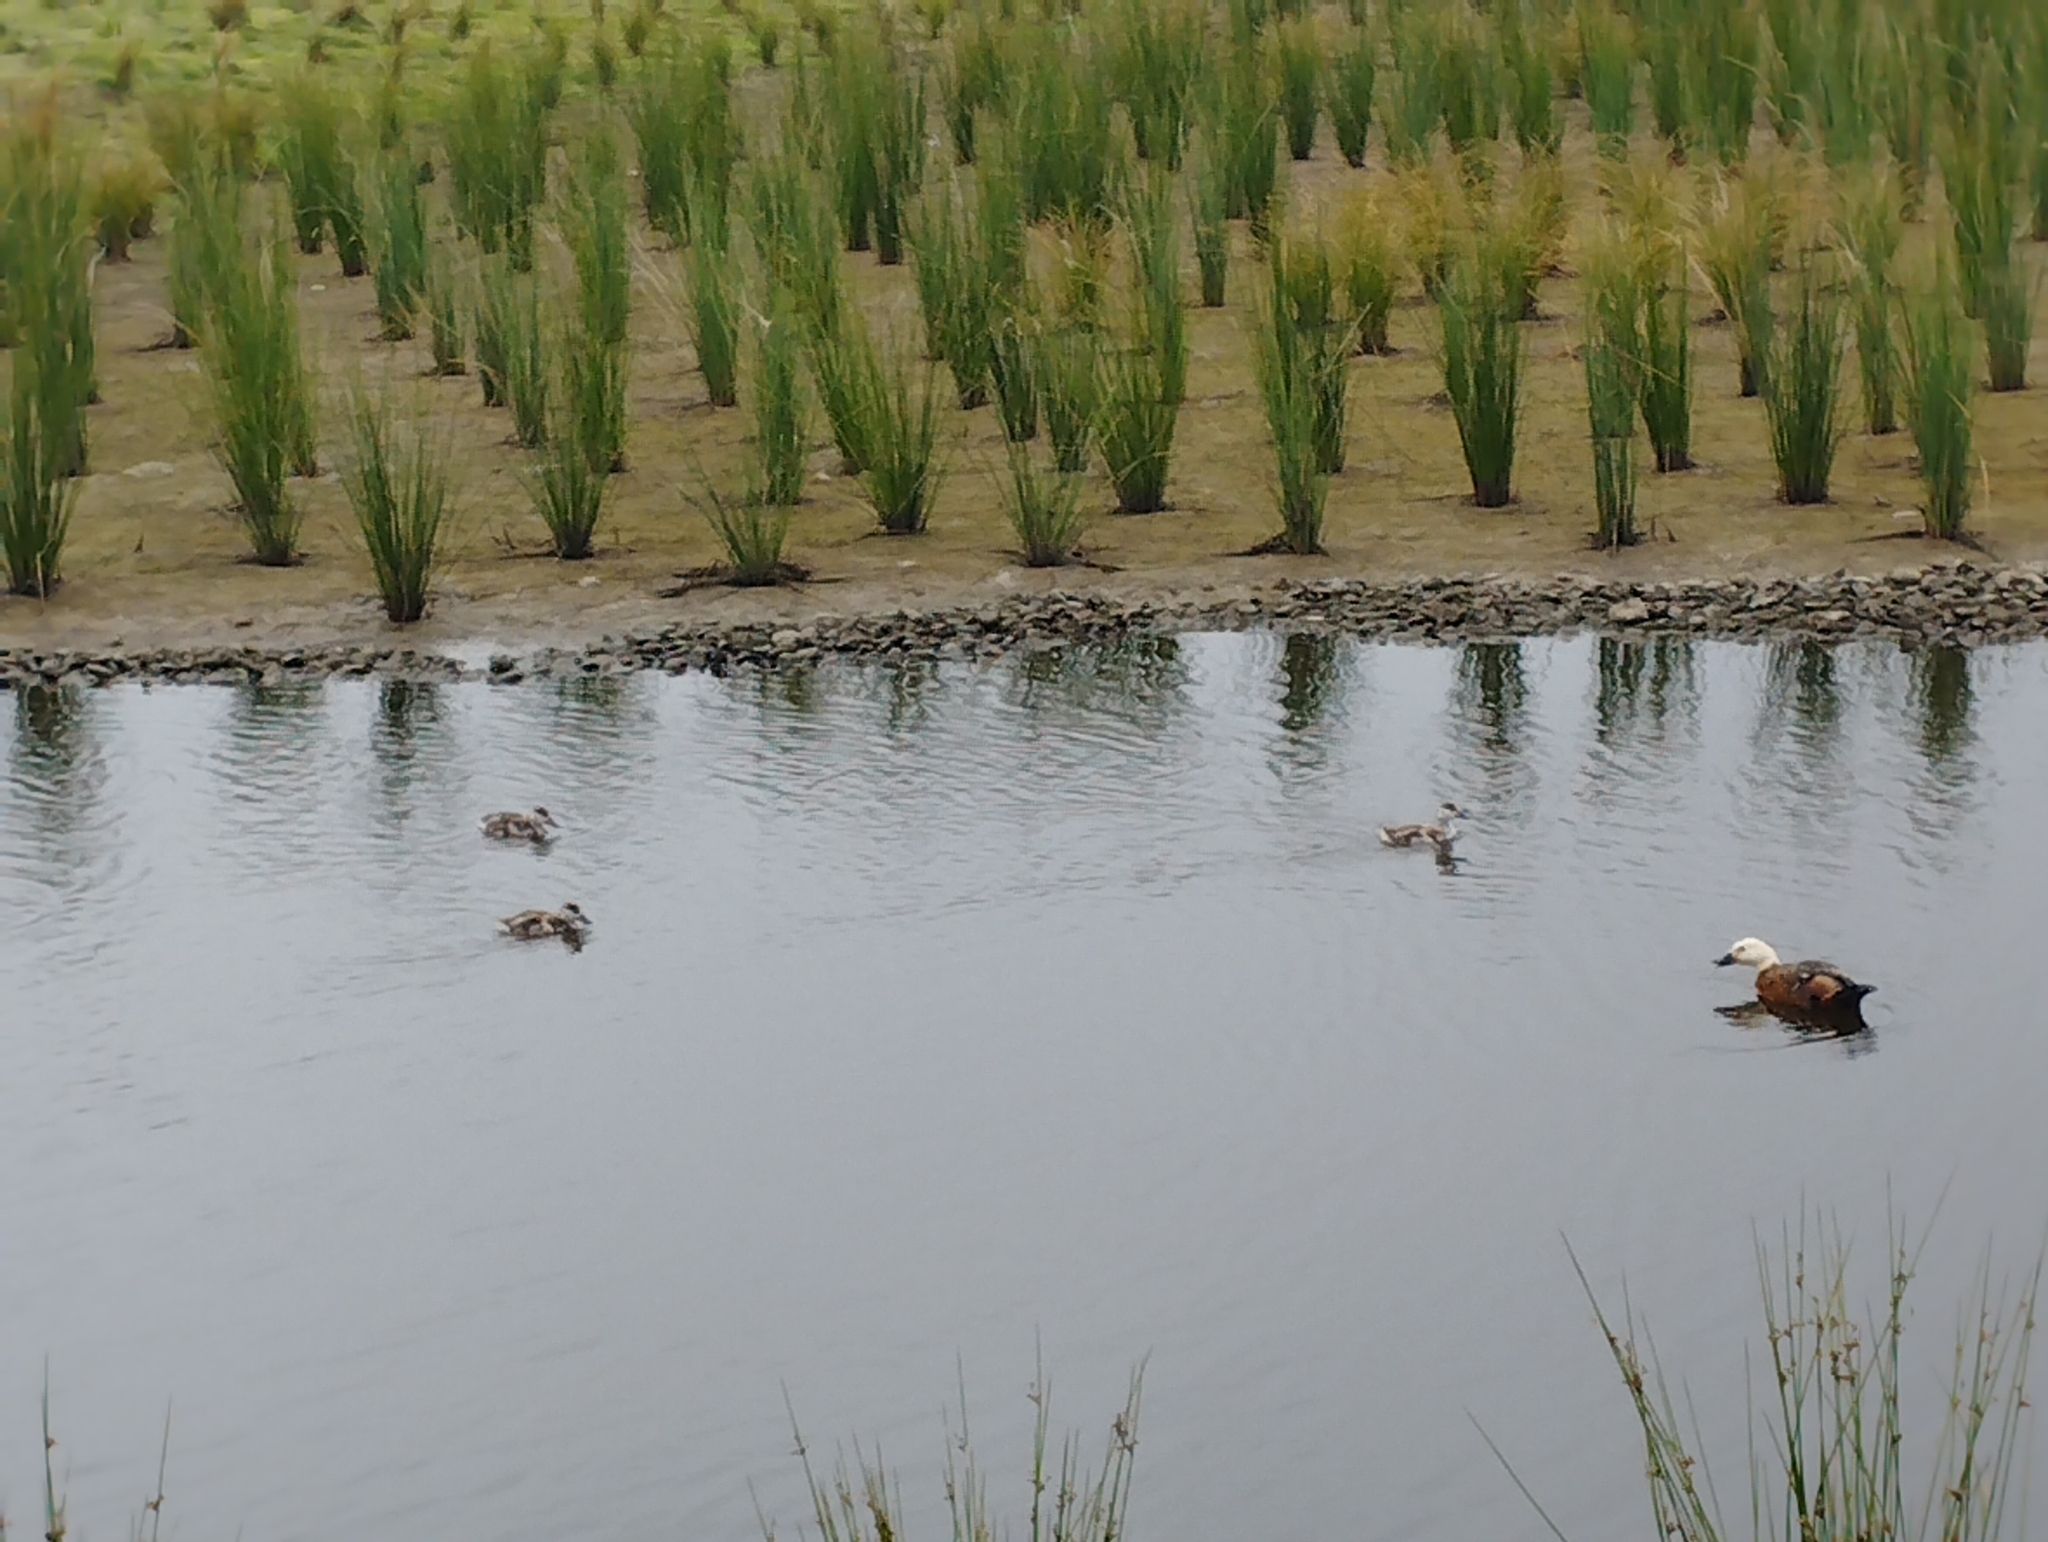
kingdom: Animalia
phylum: Chordata
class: Aves
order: Anseriformes
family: Anatidae
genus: Tadorna
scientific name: Tadorna variegata
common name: Paradise shelduck
